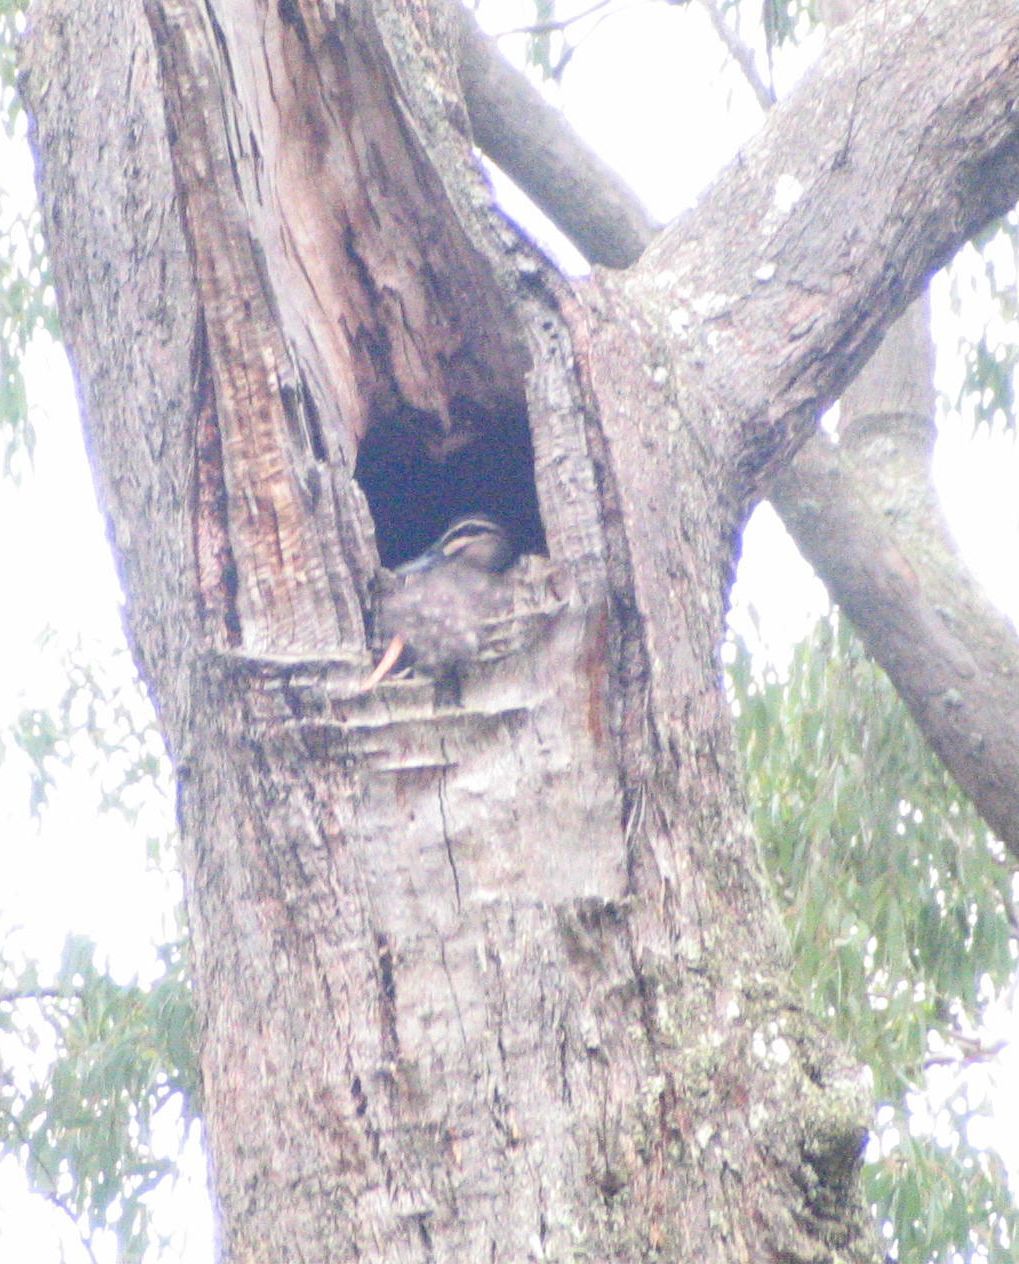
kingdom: Animalia
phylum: Chordata
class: Aves
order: Anseriformes
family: Anatidae
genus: Anas
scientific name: Anas superciliosa
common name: Pacific black duck
